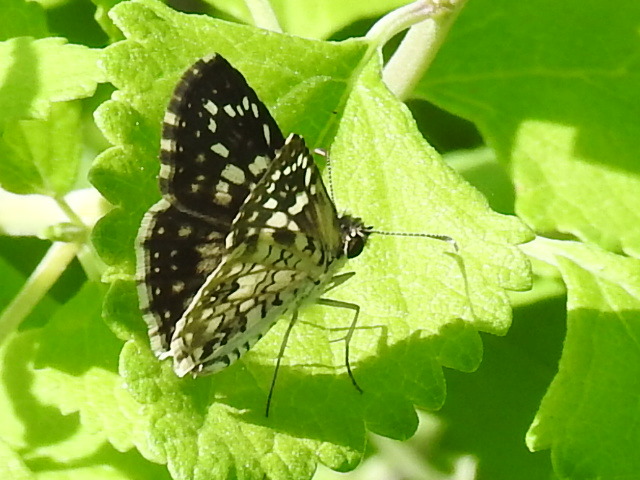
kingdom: Animalia
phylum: Arthropoda
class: Insecta
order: Lepidoptera
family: Hesperiidae
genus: Pyrgus
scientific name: Pyrgus oileus
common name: Tropical checkered-skipper
